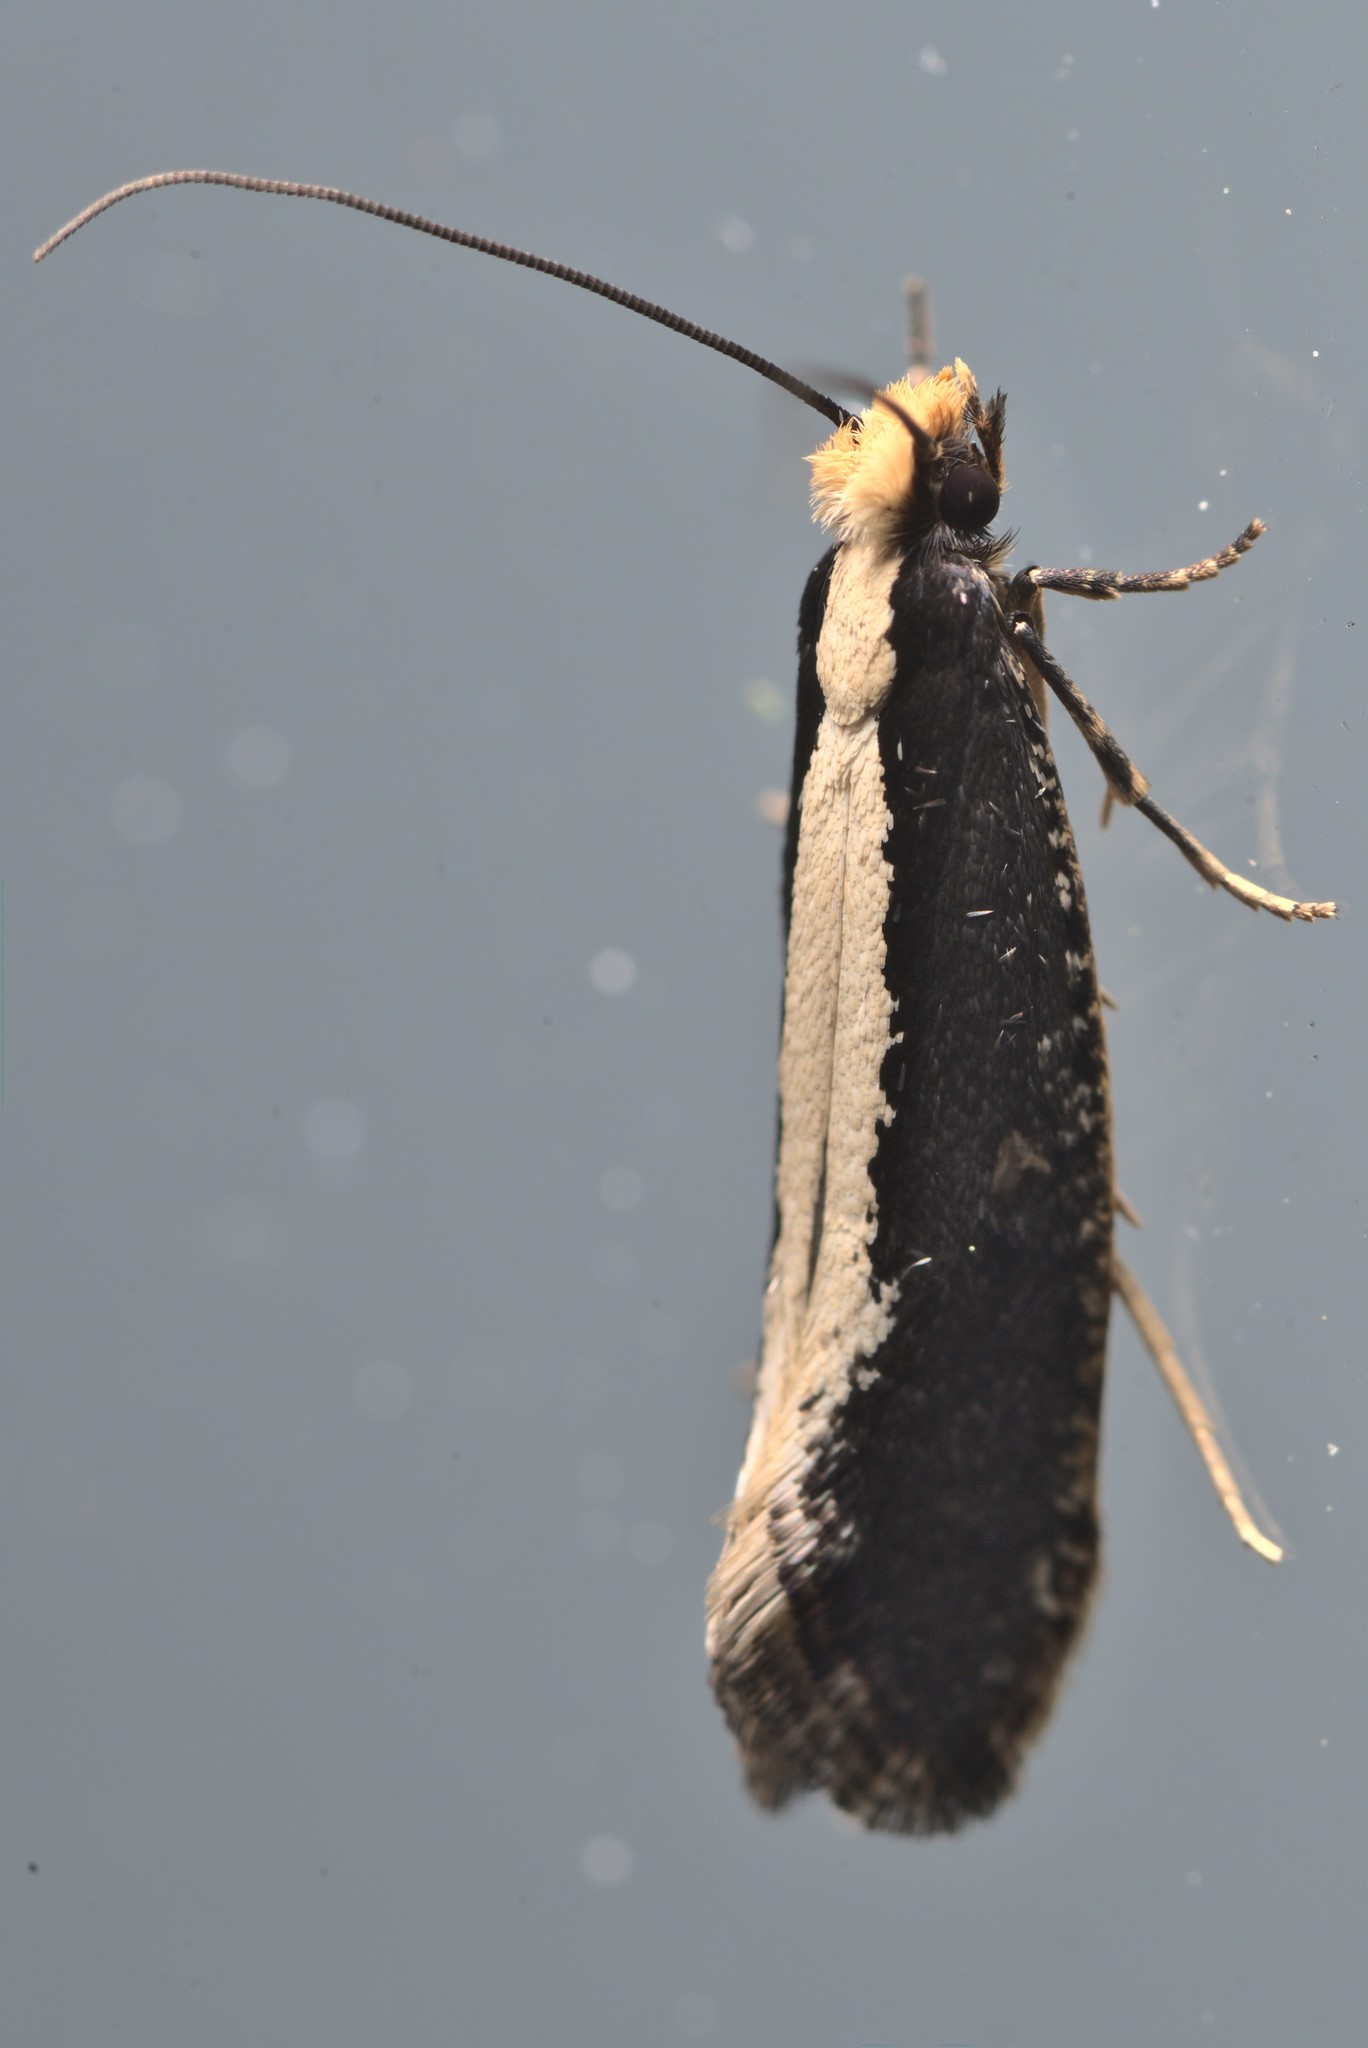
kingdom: Animalia
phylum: Arthropoda
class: Insecta
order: Lepidoptera
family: Tineidae
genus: Monopis
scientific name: Monopis ethelella
